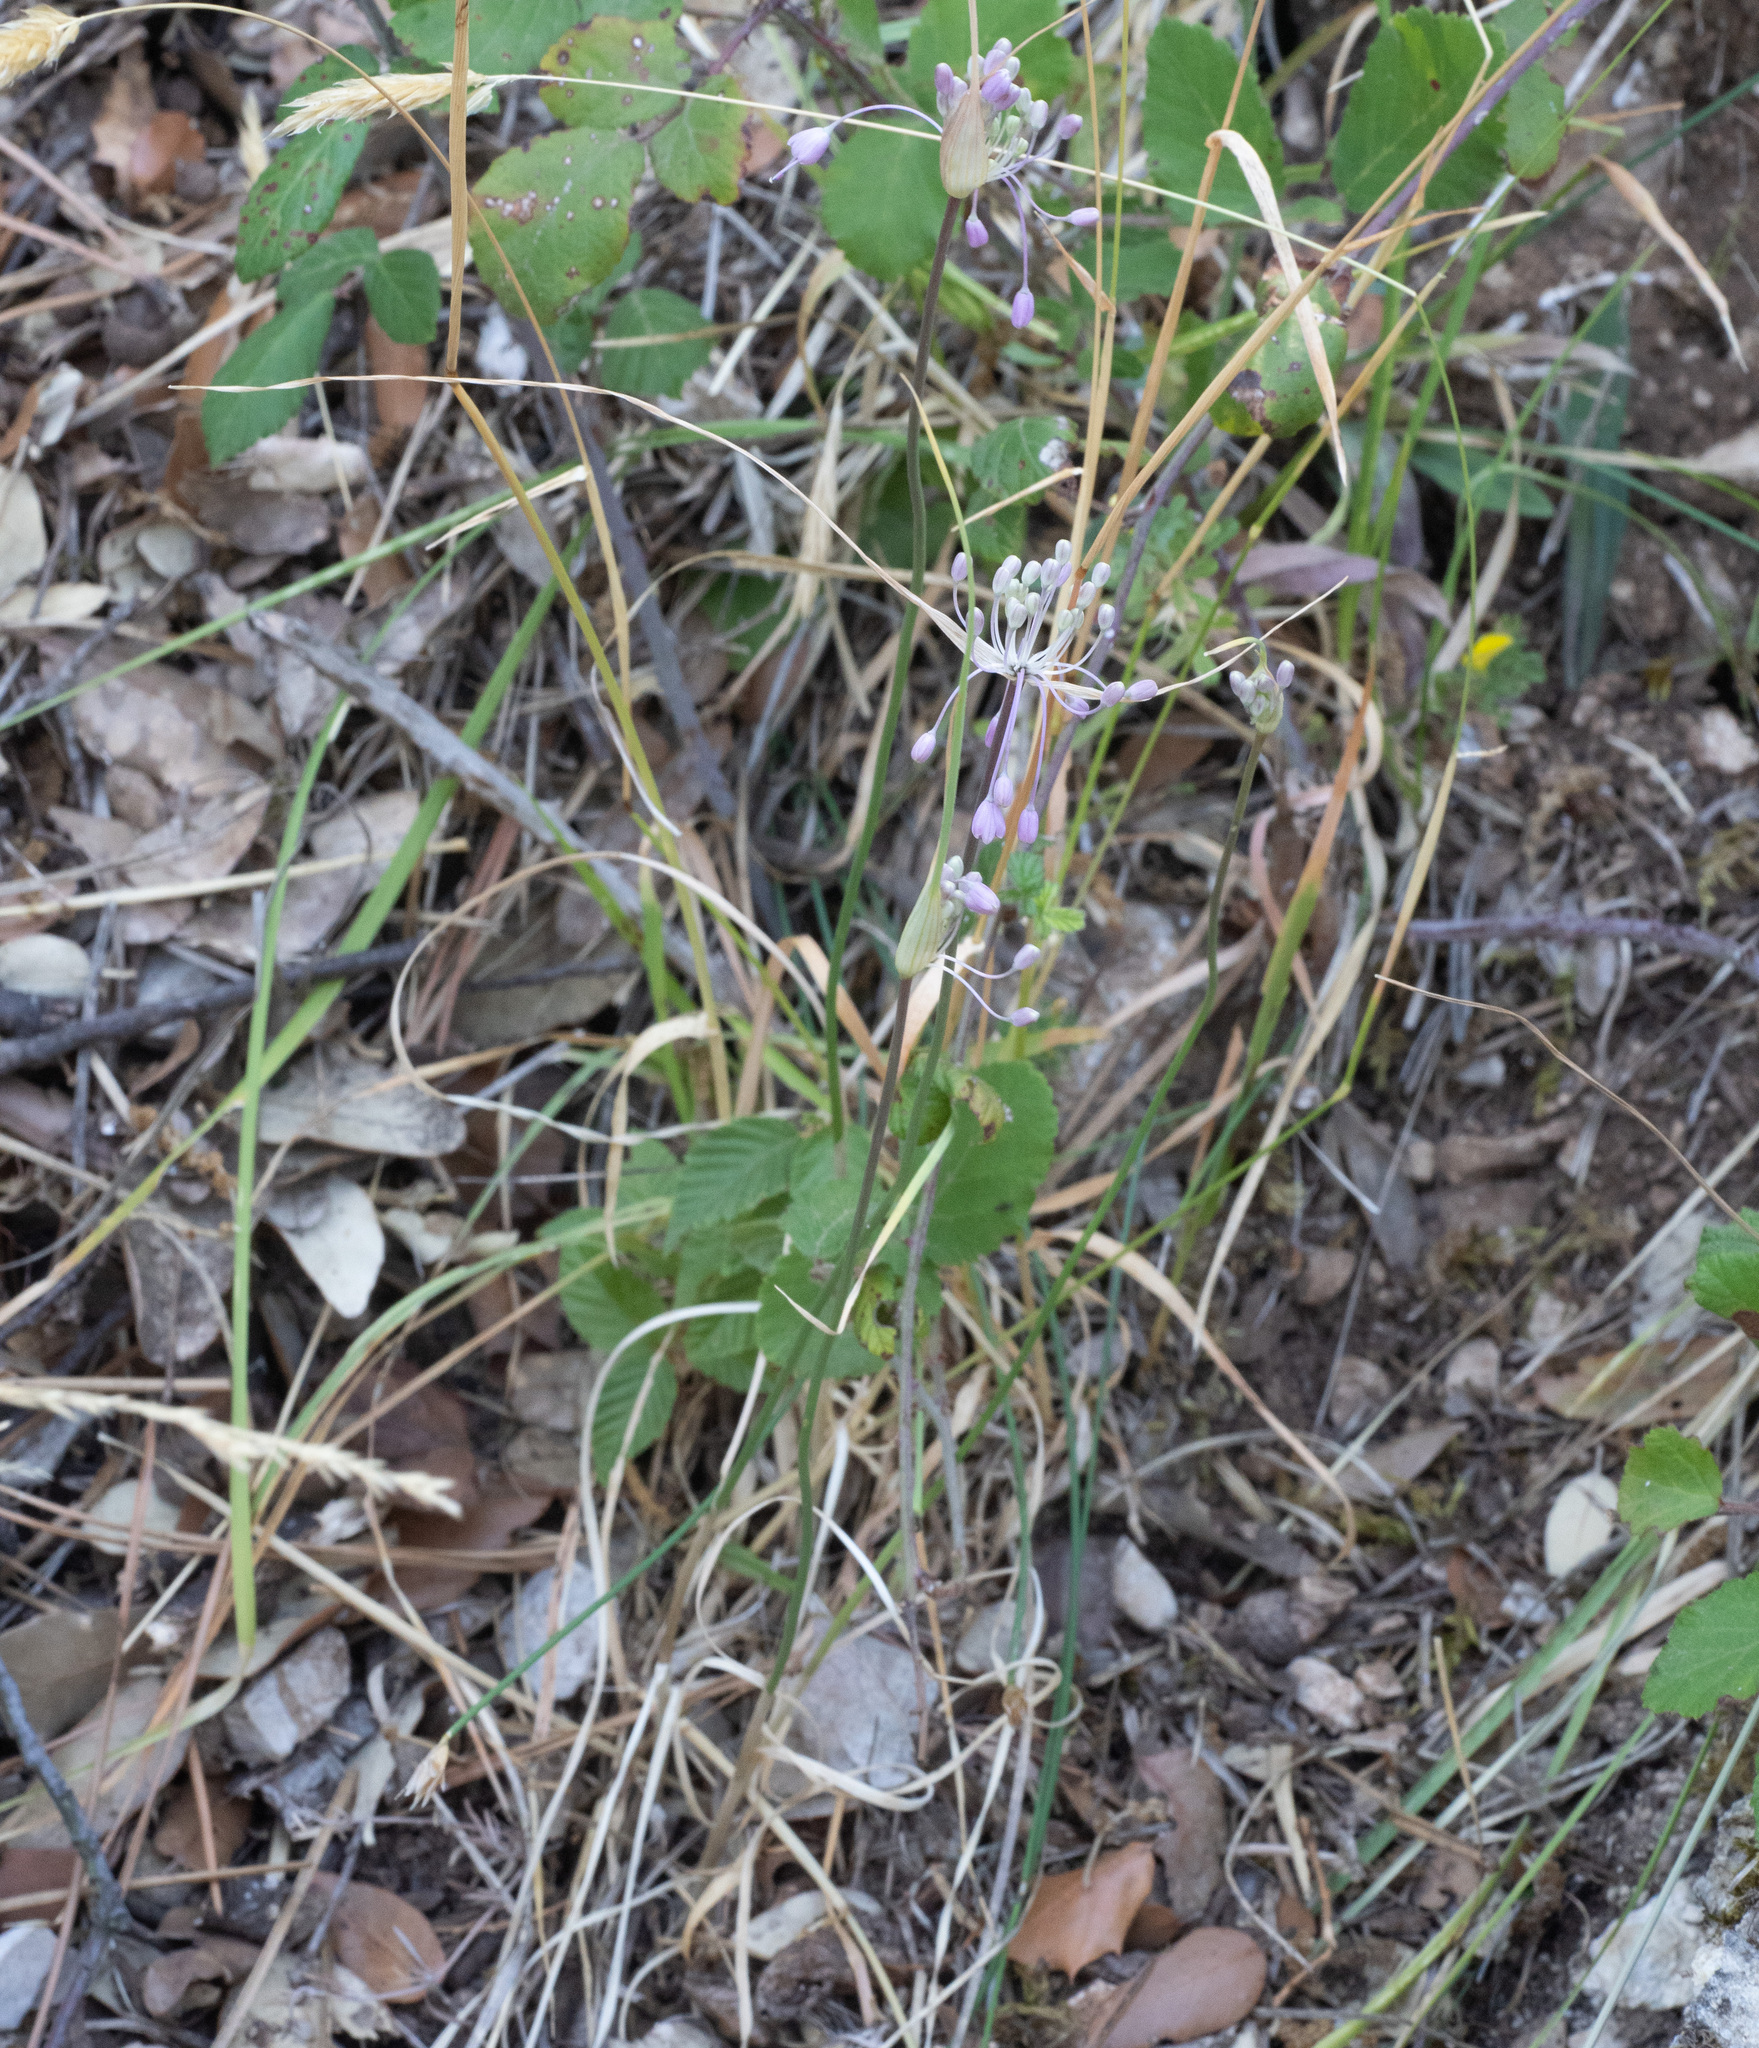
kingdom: Plantae
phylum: Tracheophyta
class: Liliopsida
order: Asparagales
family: Amaryllidaceae
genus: Allium
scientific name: Allium carinatum
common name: Keeled garlic
